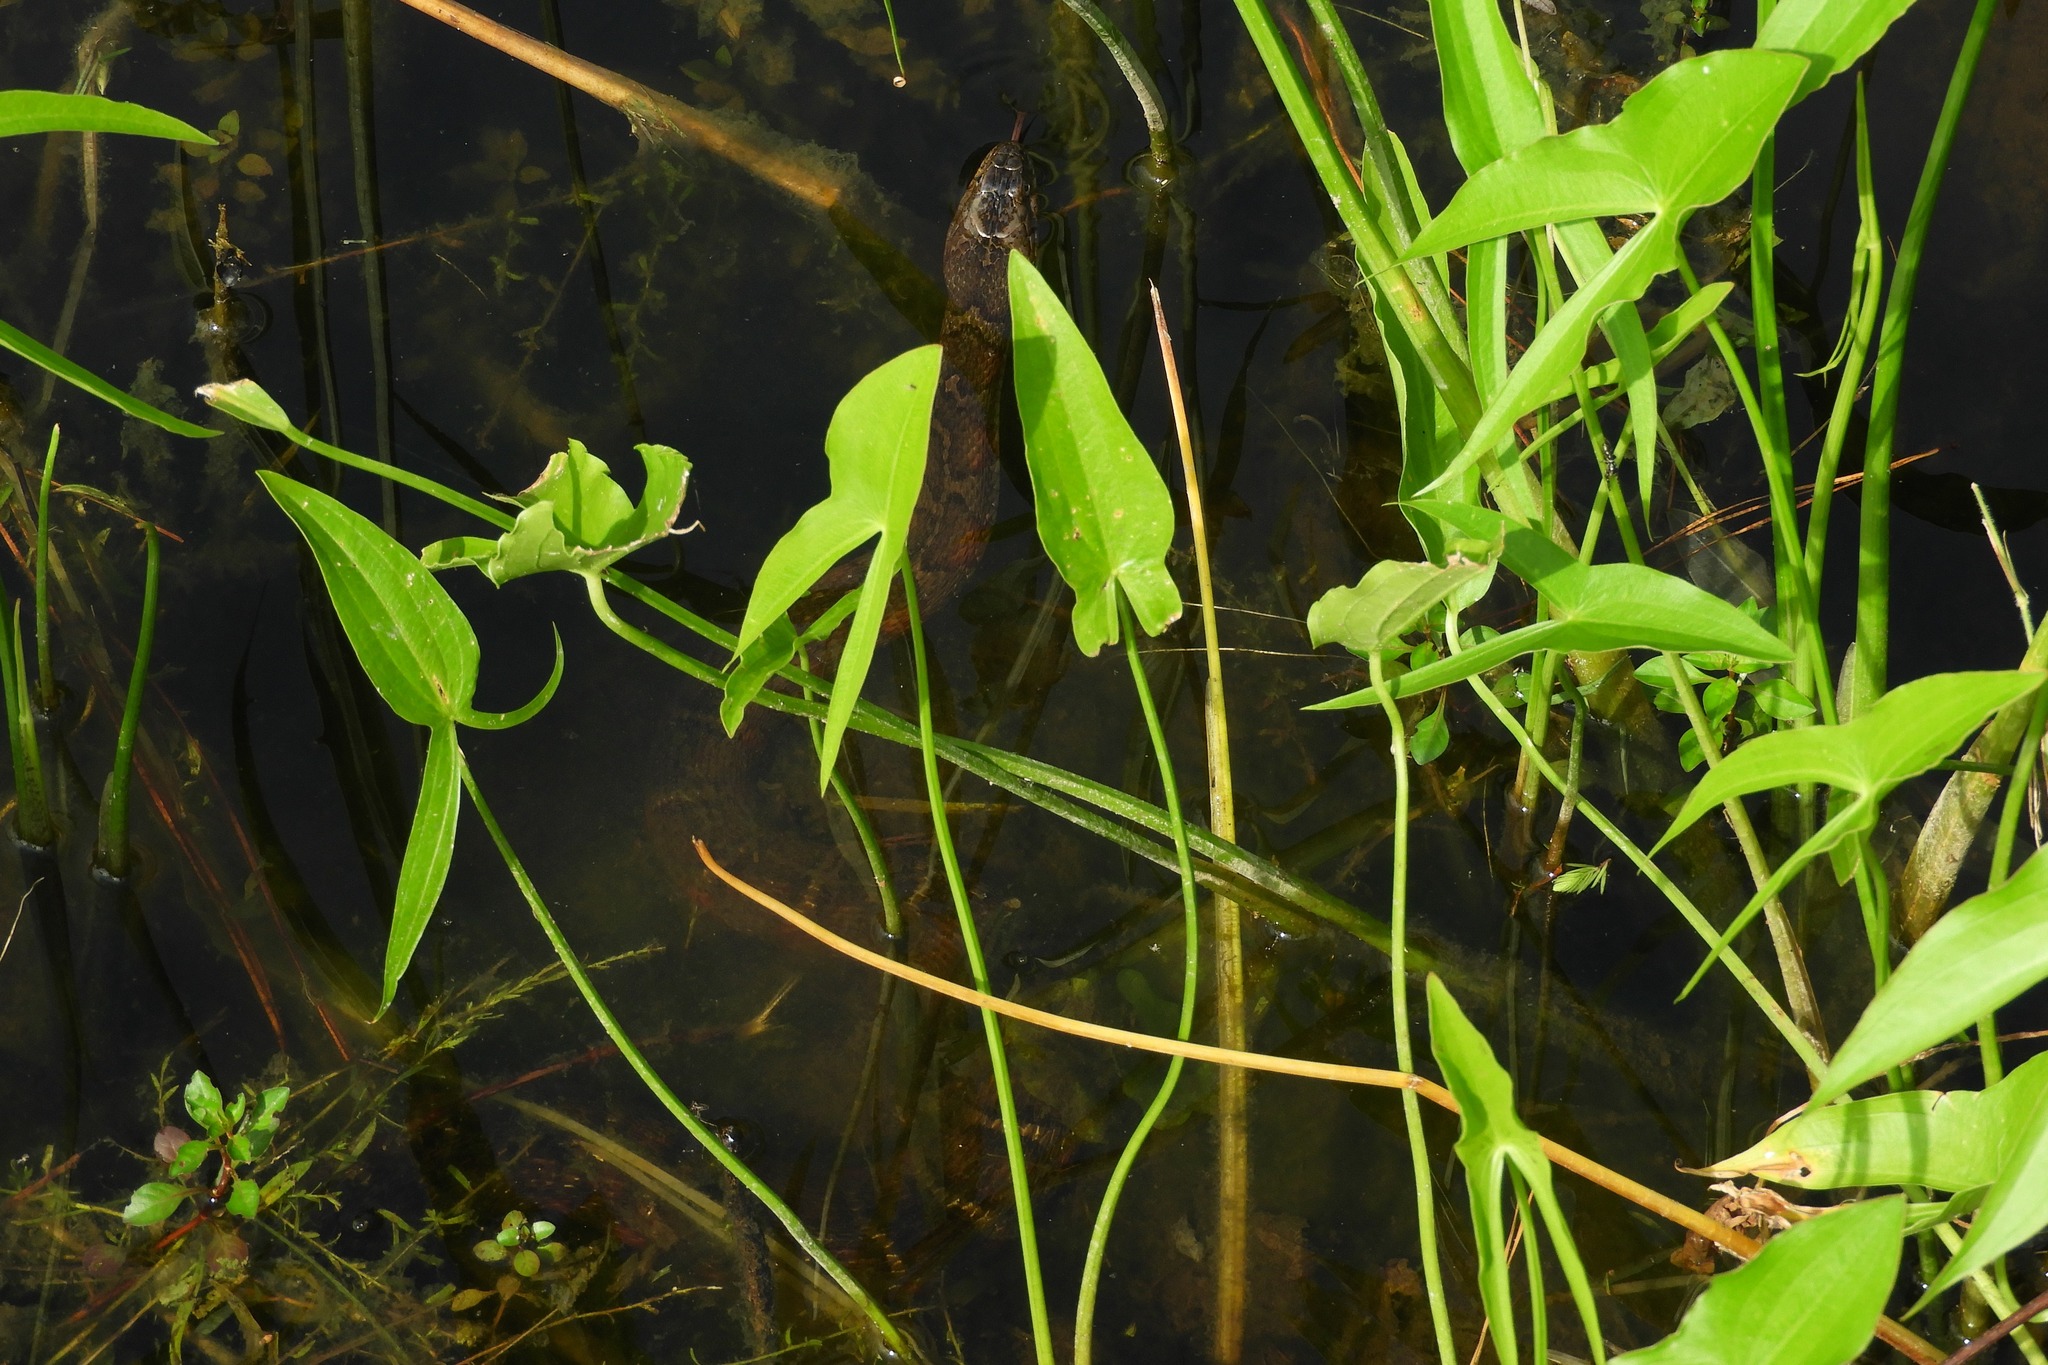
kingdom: Animalia
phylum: Chordata
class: Squamata
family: Colubridae
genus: Nerodia
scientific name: Nerodia sipedon
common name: Northern water snake
